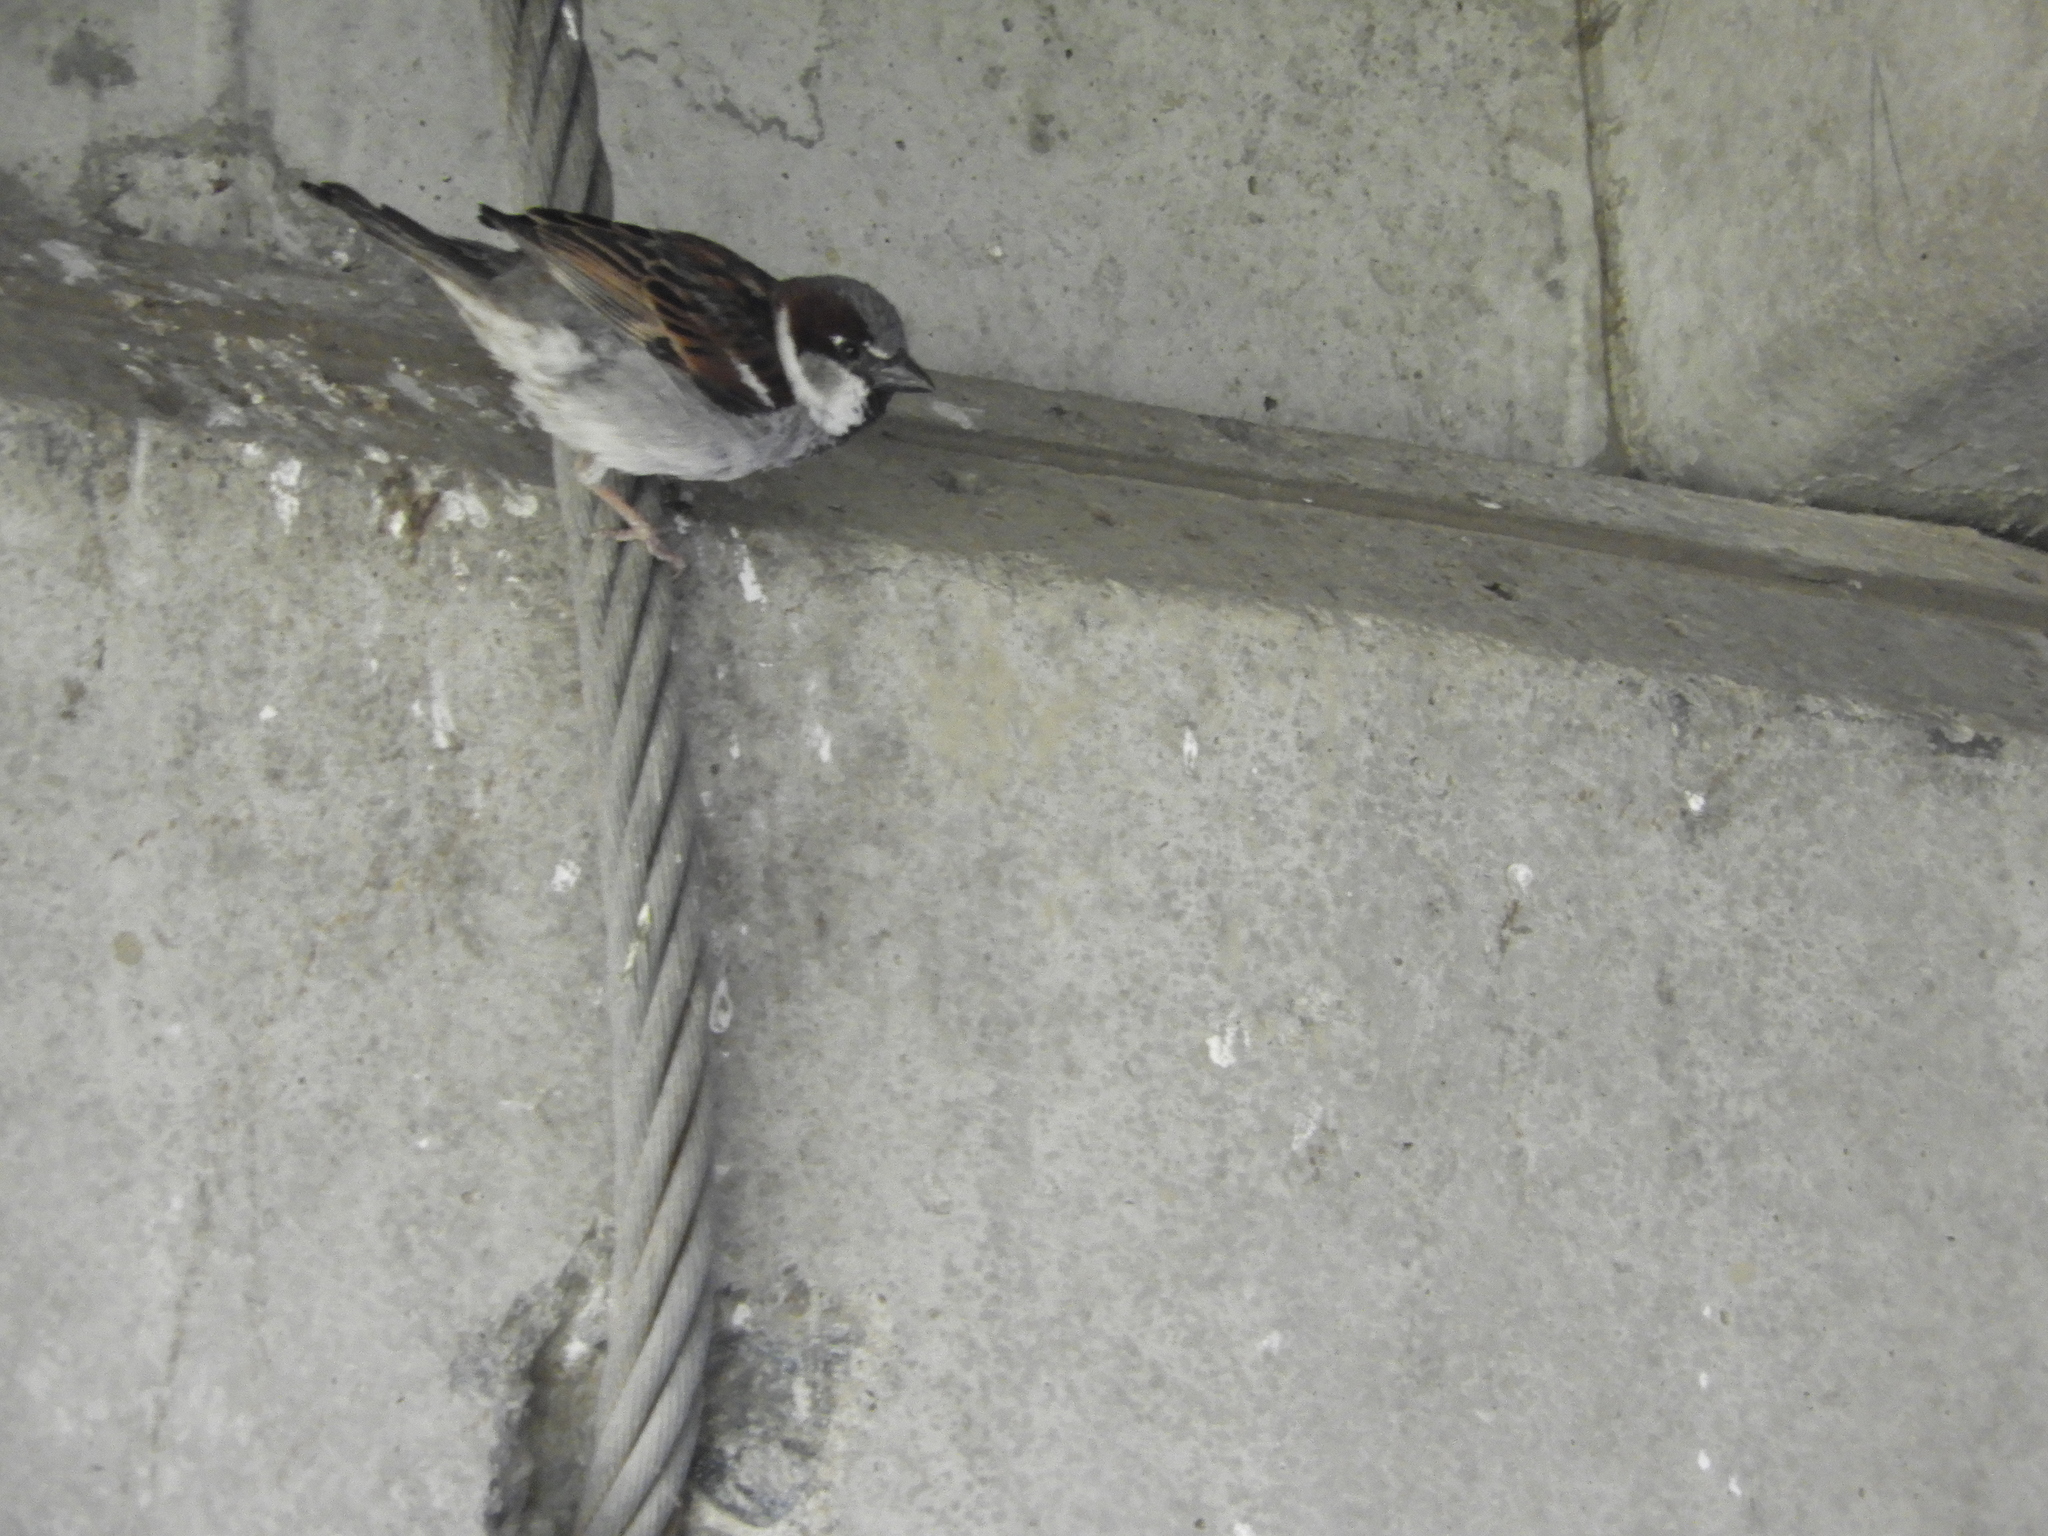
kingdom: Animalia
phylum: Chordata
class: Aves
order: Passeriformes
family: Passeridae
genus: Passer
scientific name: Passer domesticus
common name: House sparrow
